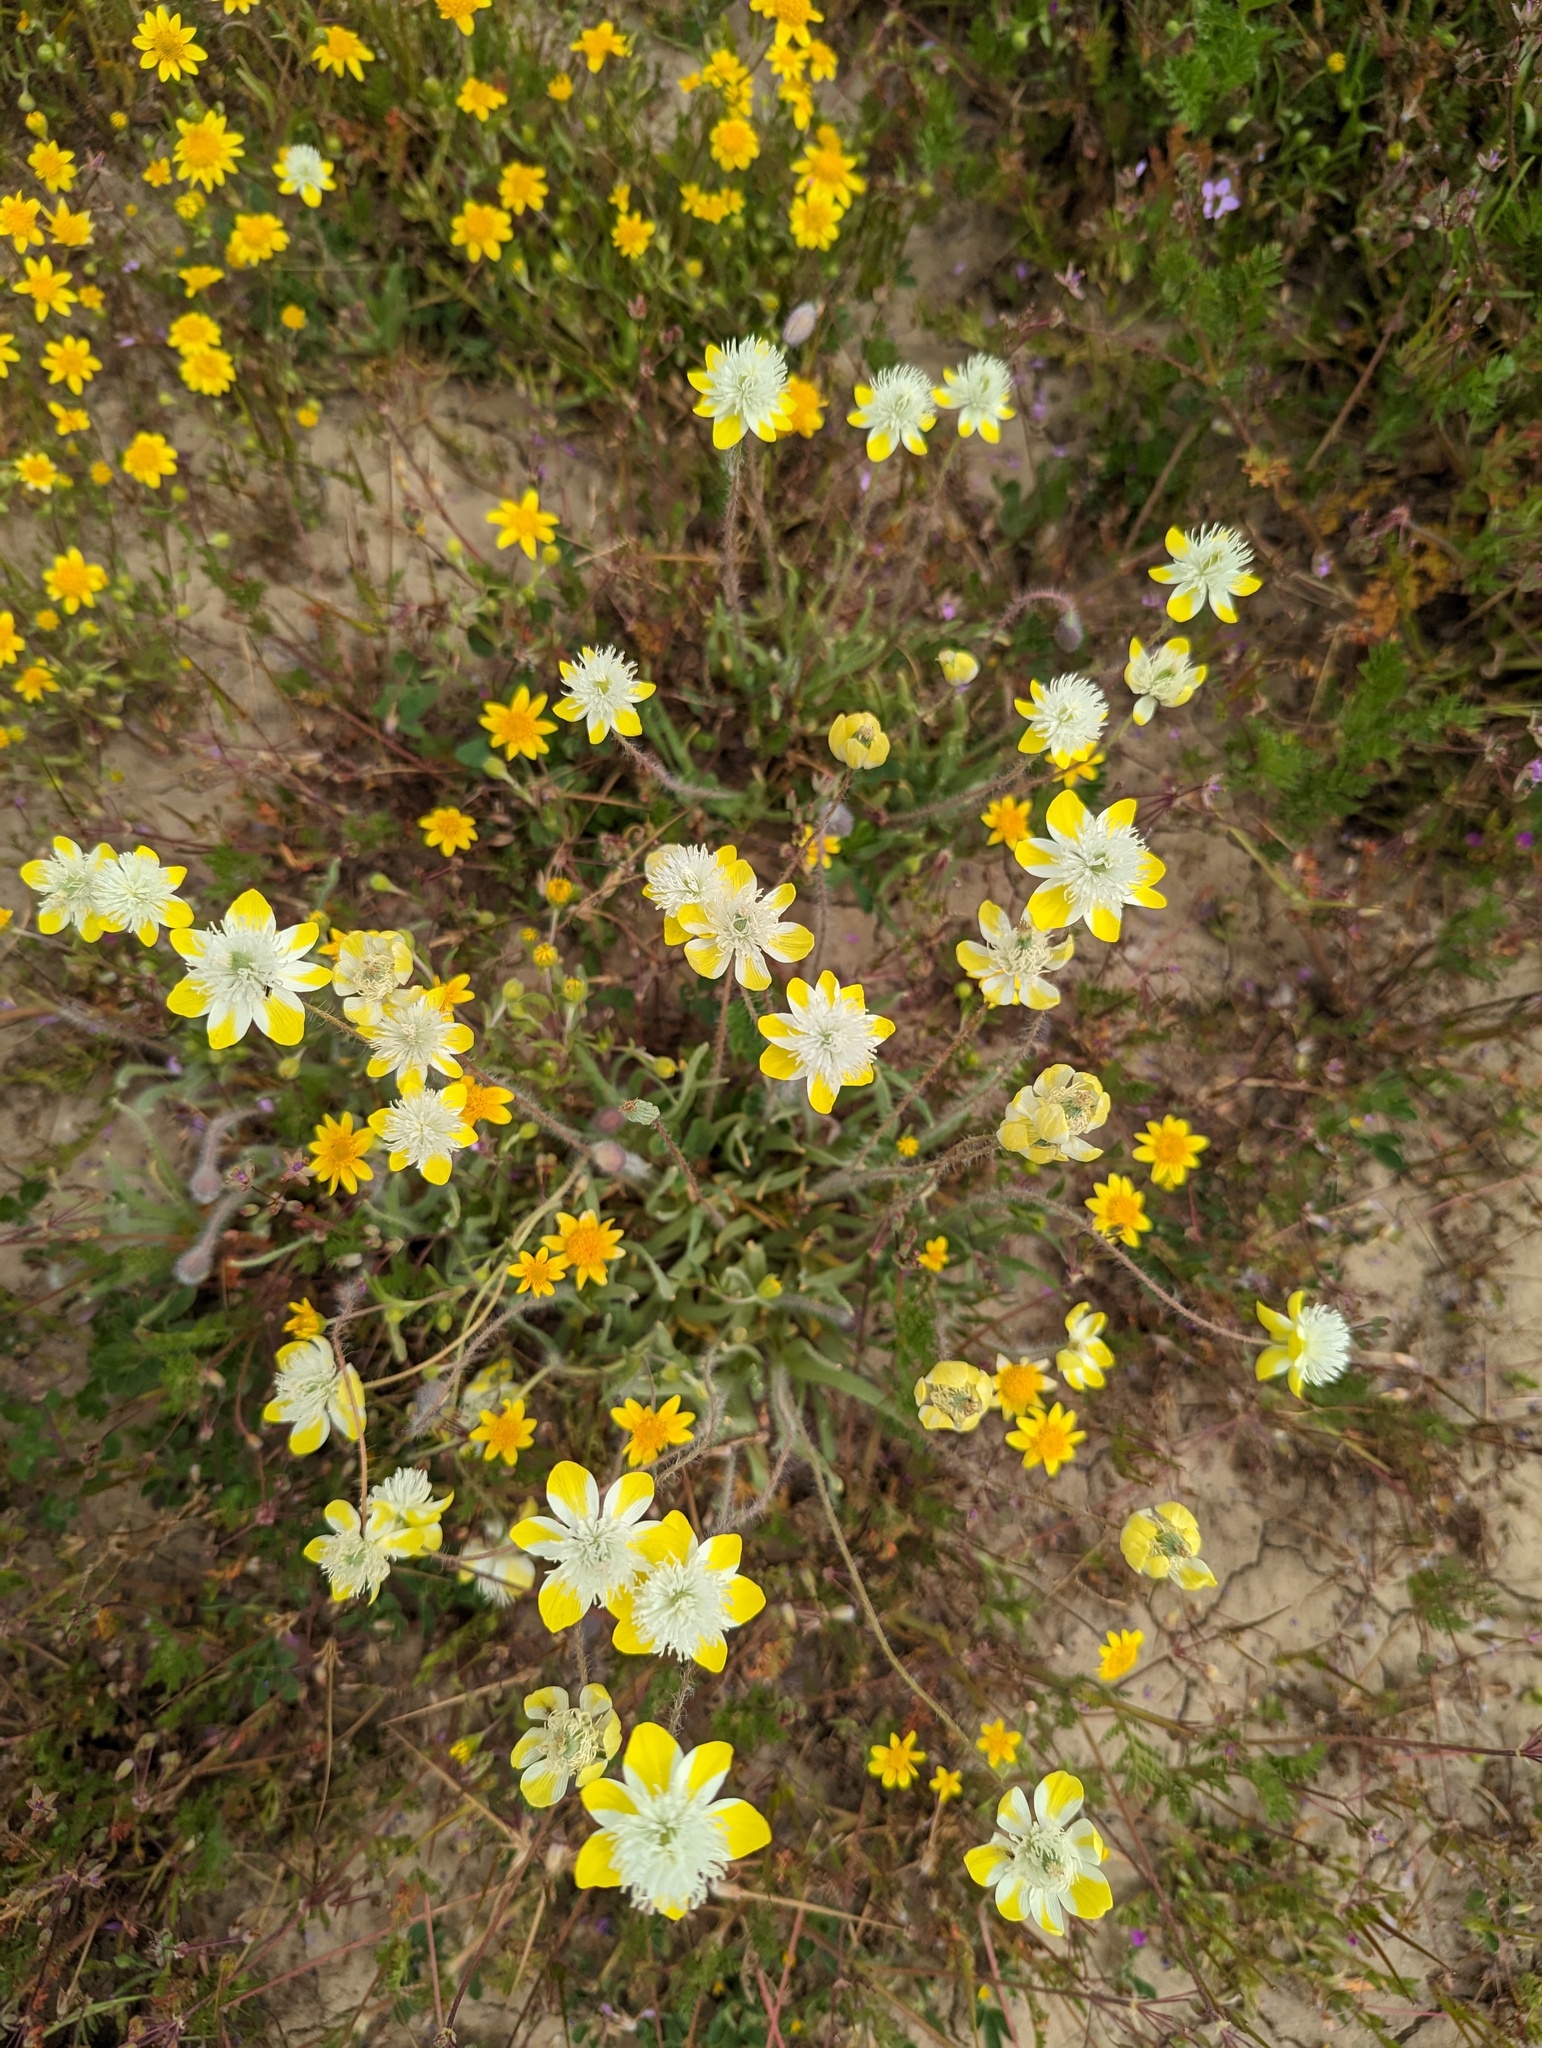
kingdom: Plantae
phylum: Tracheophyta
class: Magnoliopsida
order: Ranunculales
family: Papaveraceae
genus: Platystemon
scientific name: Platystemon californicus
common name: Cream-cups
